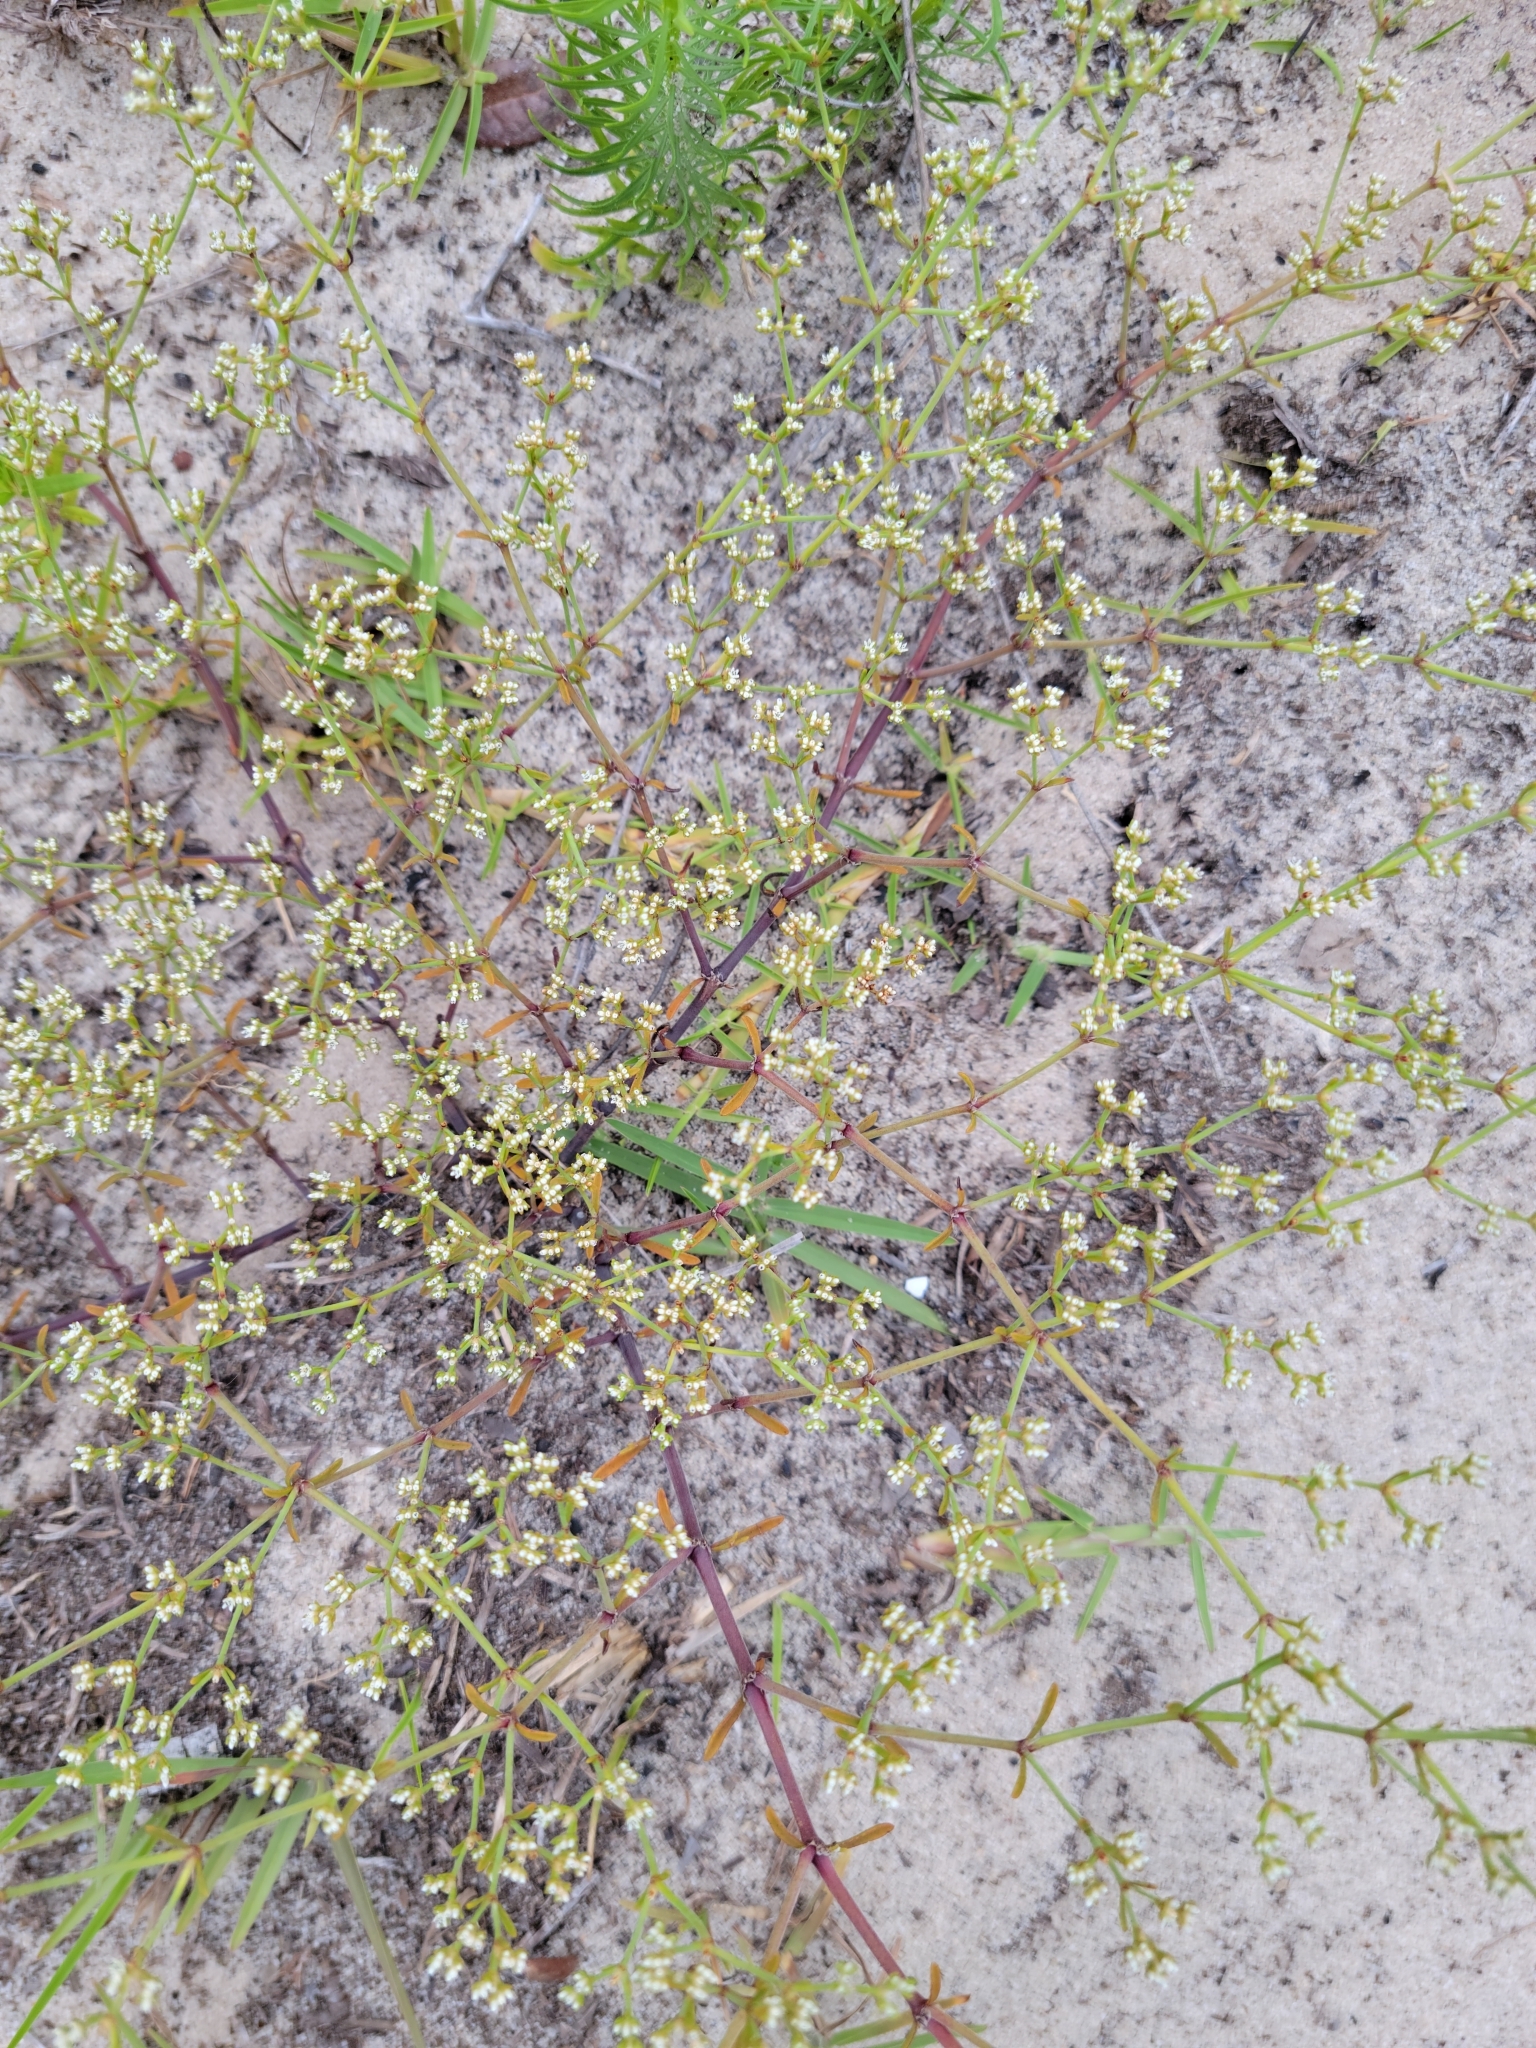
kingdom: Plantae
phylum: Tracheophyta
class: Magnoliopsida
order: Caryophyllales
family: Caryophyllaceae
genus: Paronychia
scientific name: Paronychia patula
